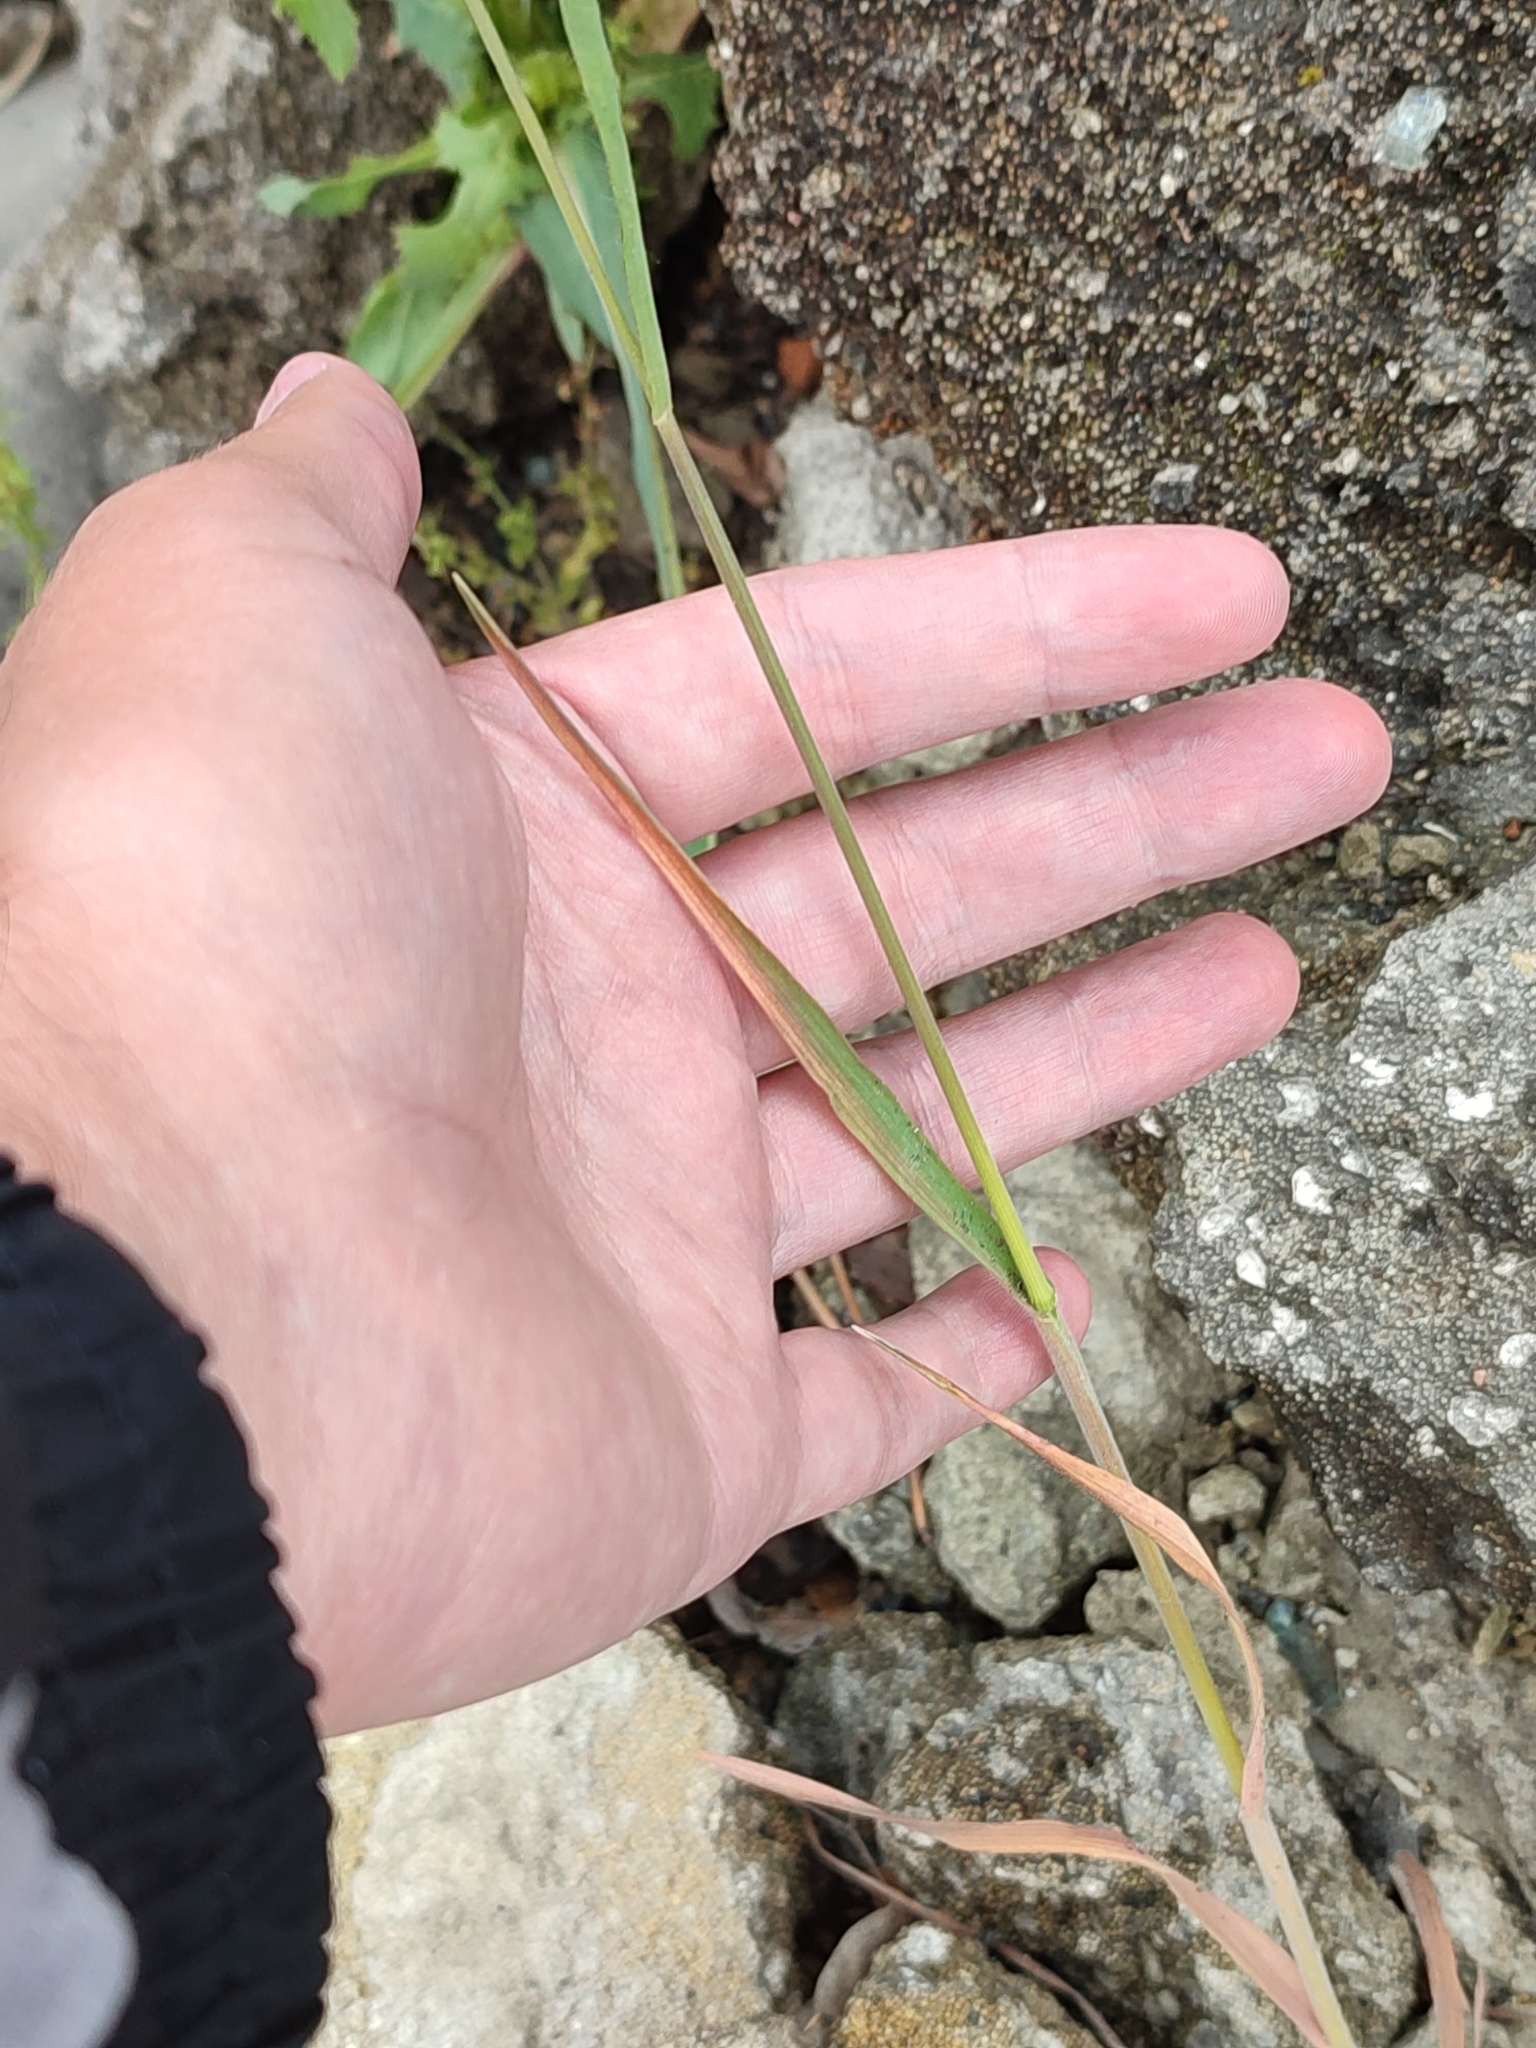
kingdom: Plantae
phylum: Tracheophyta
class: Liliopsida
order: Poales
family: Poaceae
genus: Bromus
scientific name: Bromus hordeaceus
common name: Soft brome
